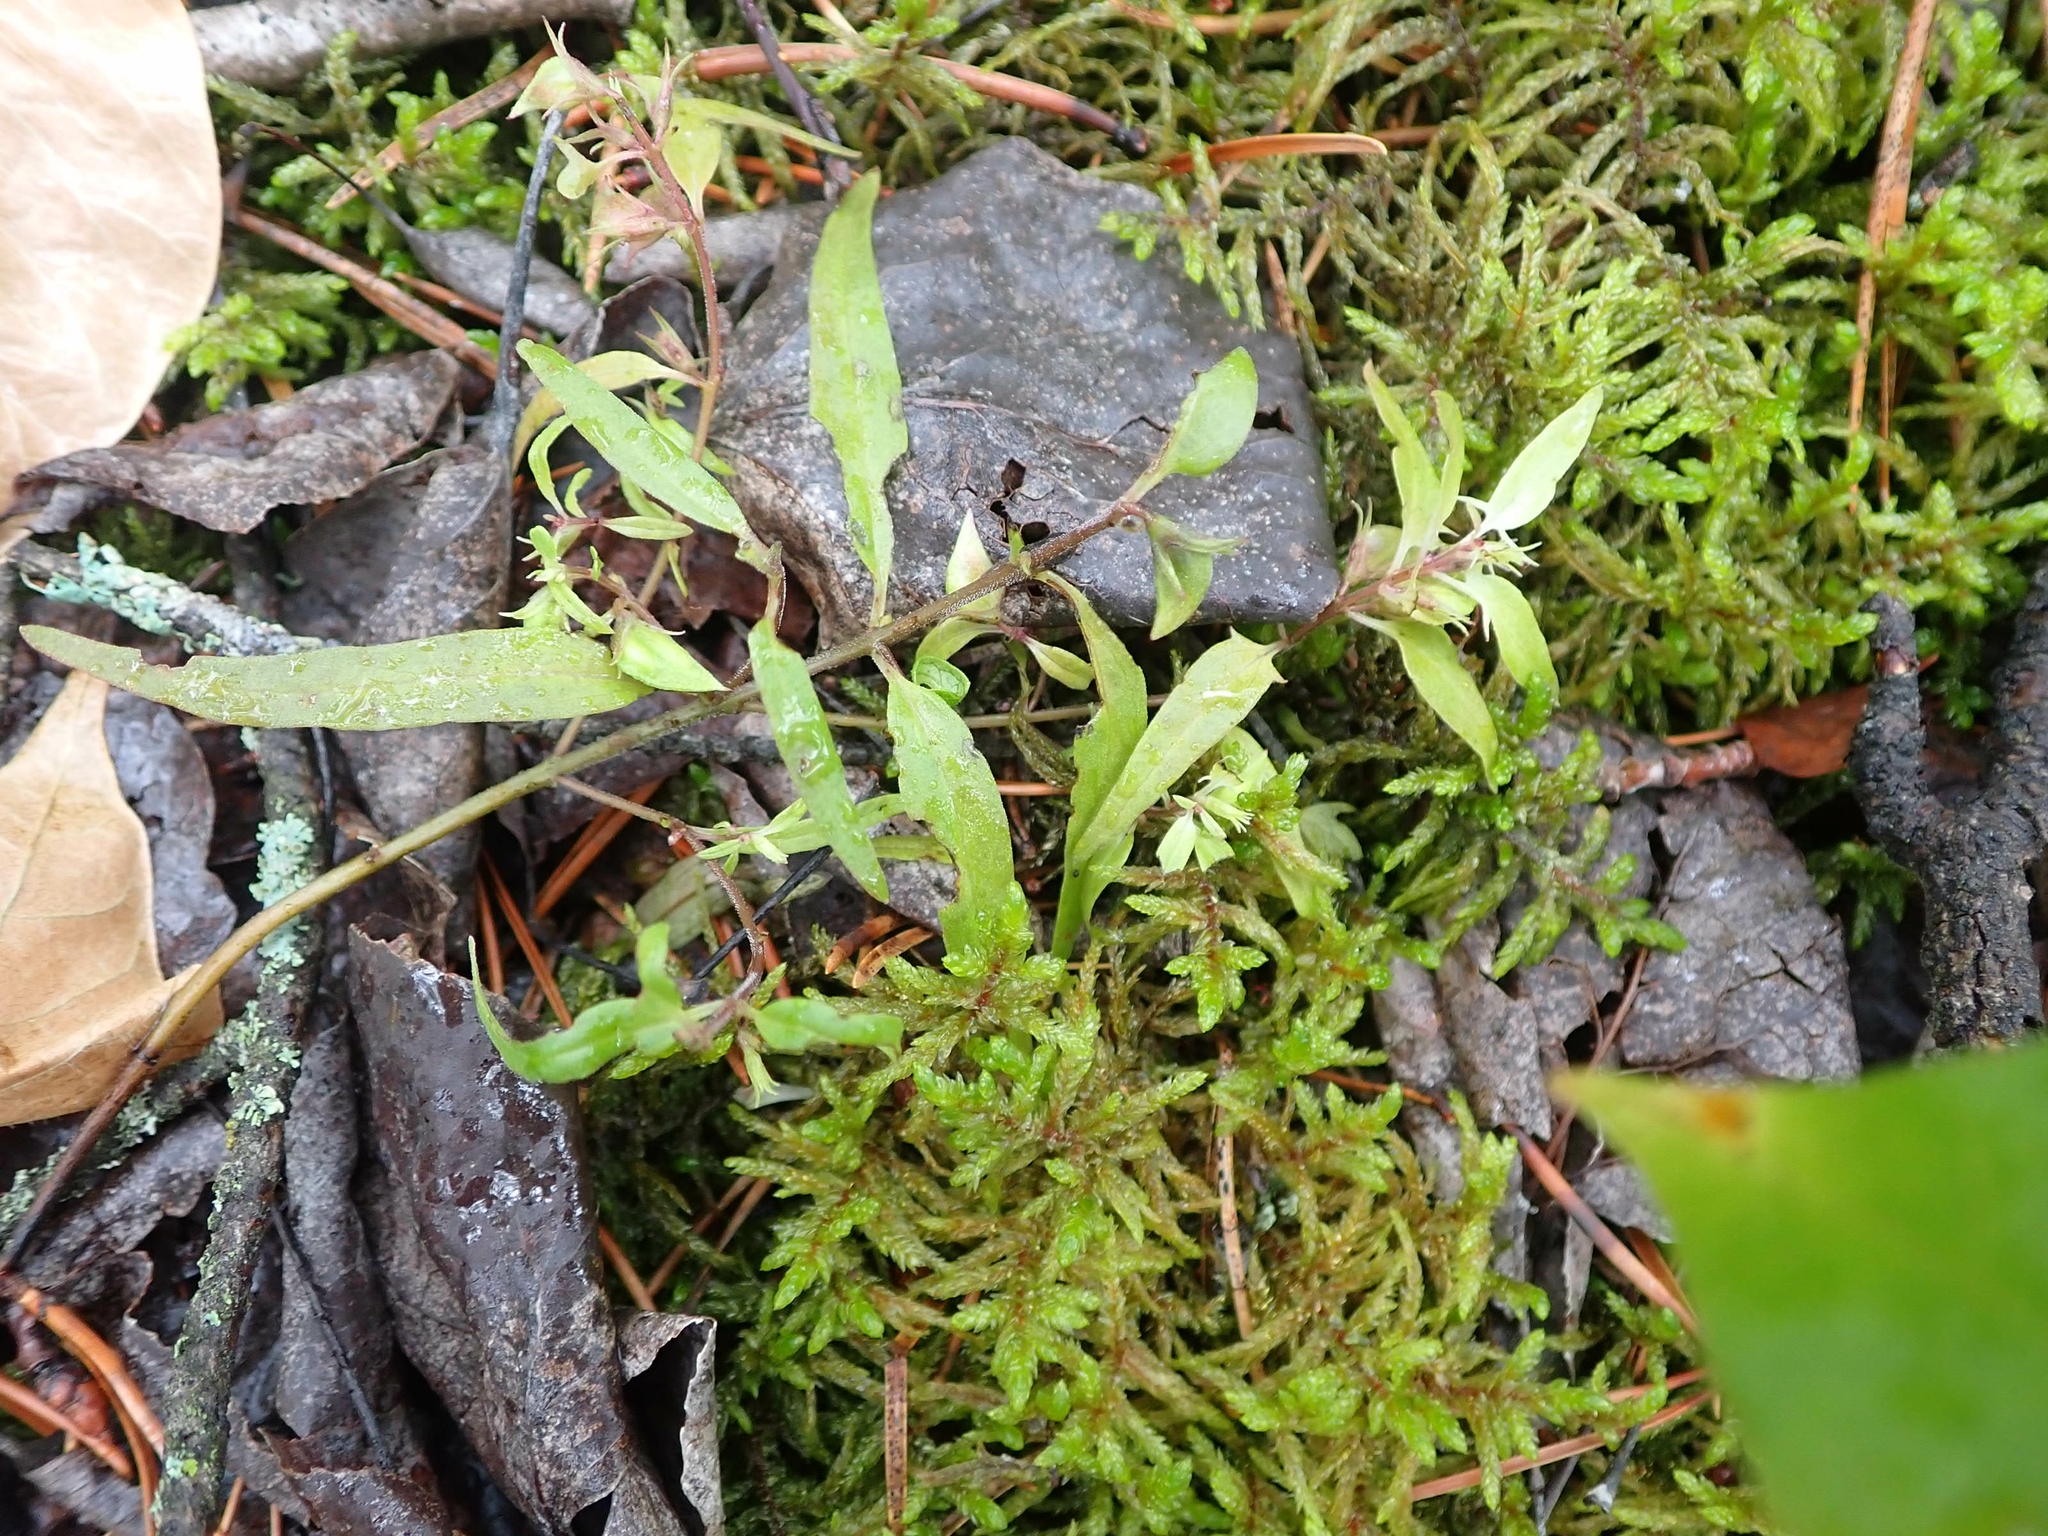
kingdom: Plantae
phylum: Tracheophyta
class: Magnoliopsida
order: Lamiales
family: Orobanchaceae
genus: Melampyrum
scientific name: Melampyrum lineare
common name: American cow-wheat
